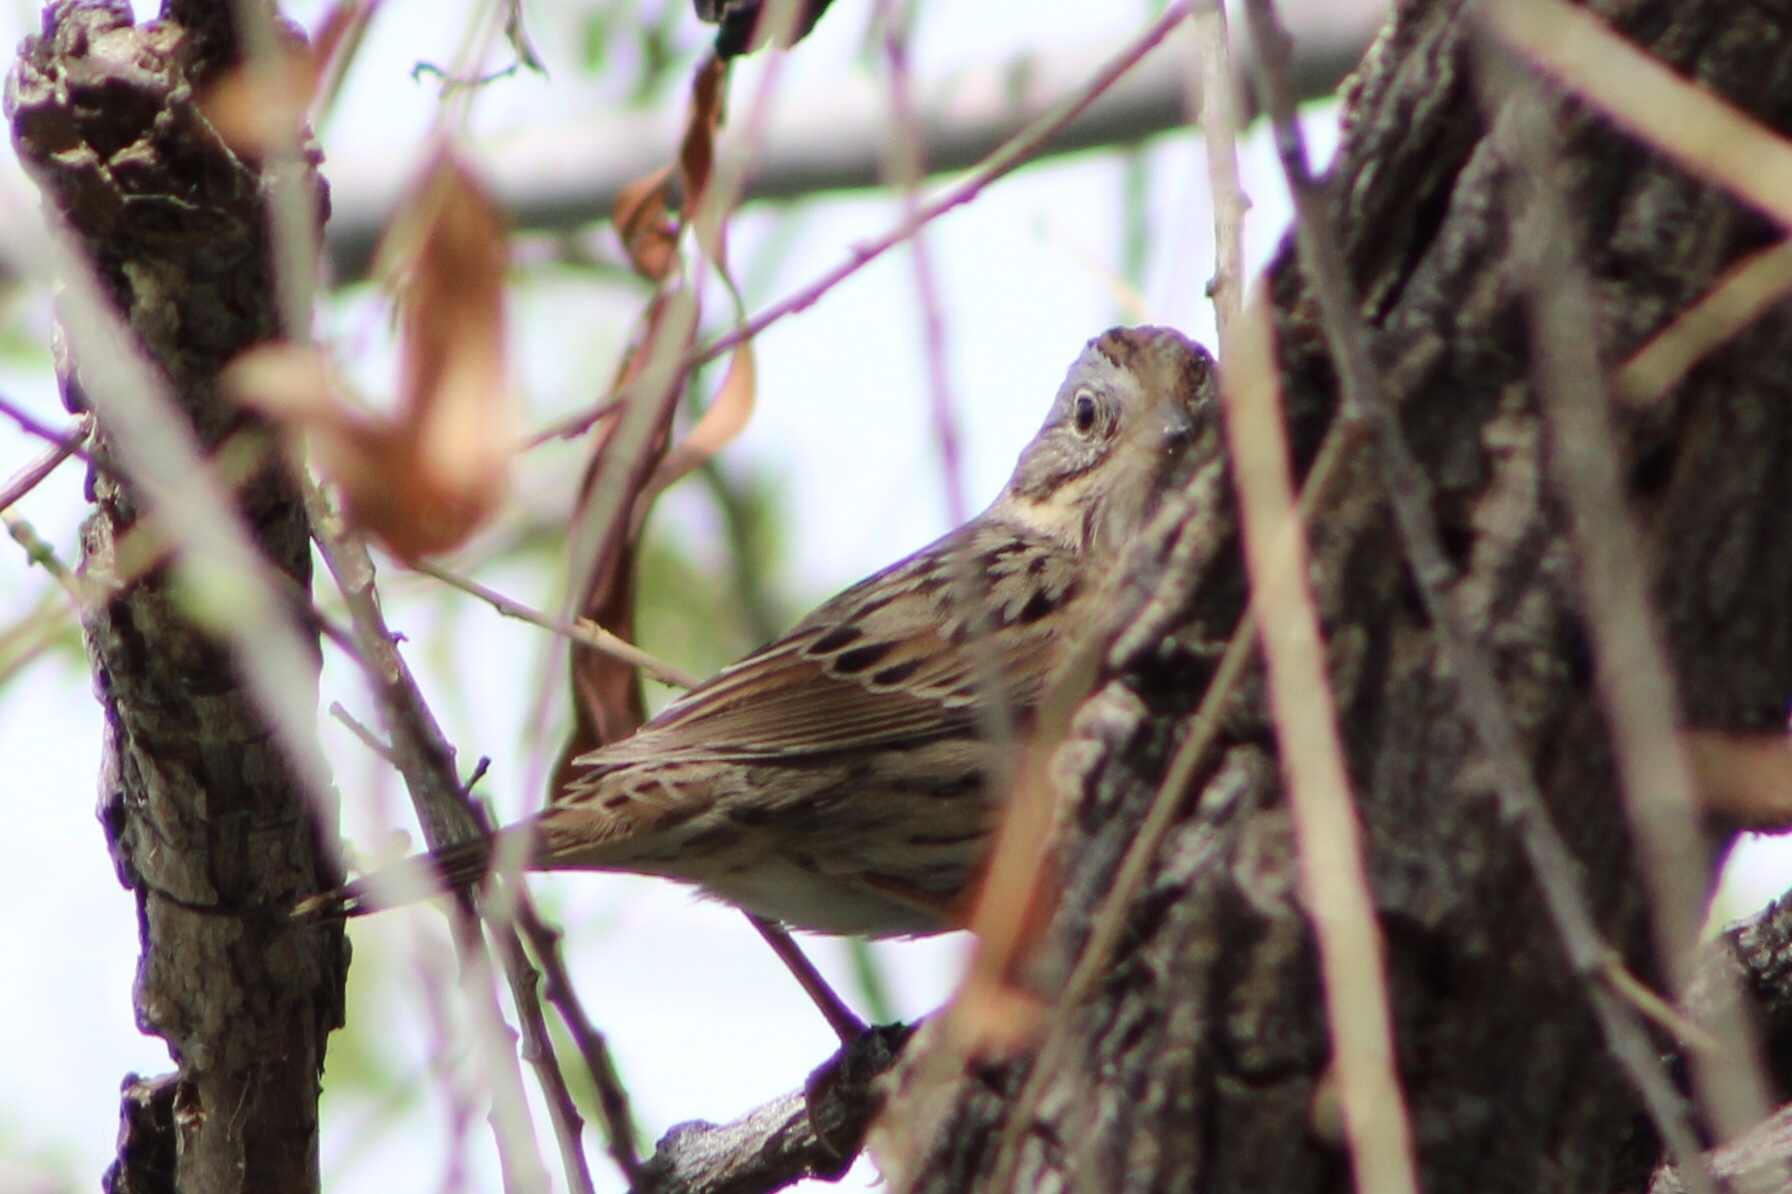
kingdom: Animalia
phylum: Chordata
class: Aves
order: Passeriformes
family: Passerellidae
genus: Melospiza
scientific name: Melospiza lincolnii
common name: Lincoln's sparrow
